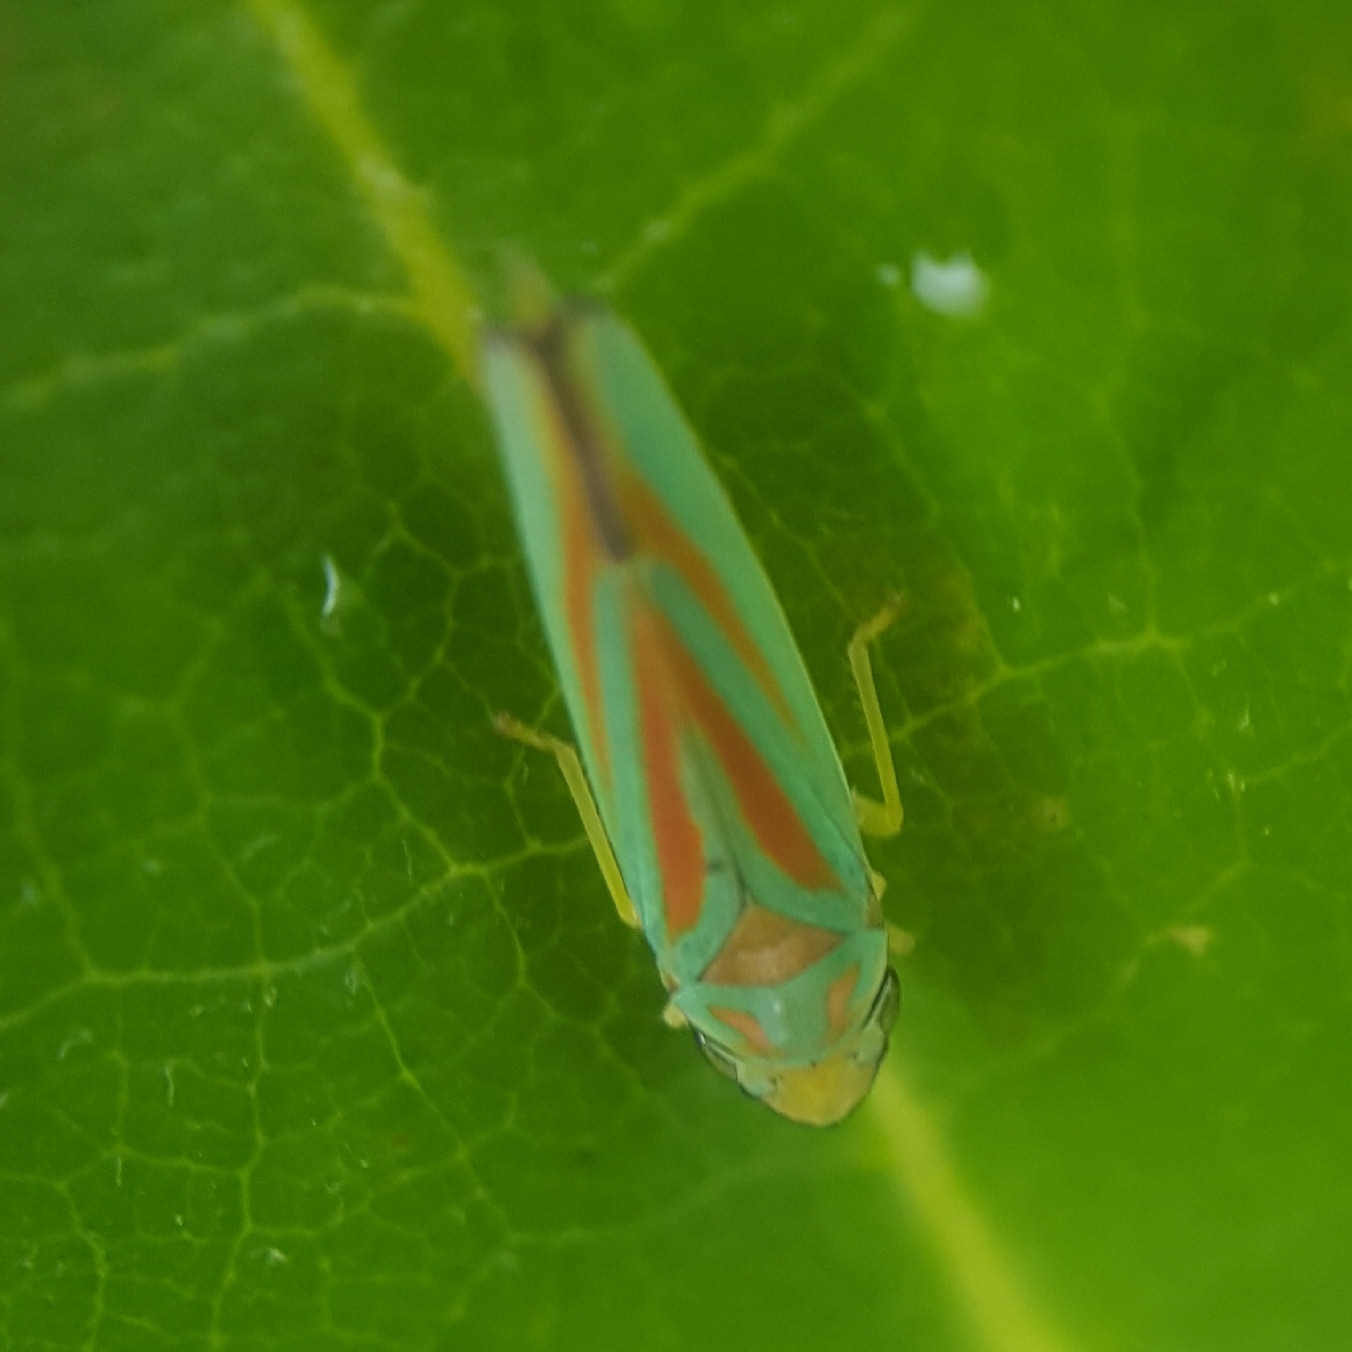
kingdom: Animalia
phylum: Arthropoda
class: Insecta
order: Hemiptera
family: Cicadellidae
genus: Graphocephala
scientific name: Graphocephala fennahi
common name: Rhododendron leafhopper
